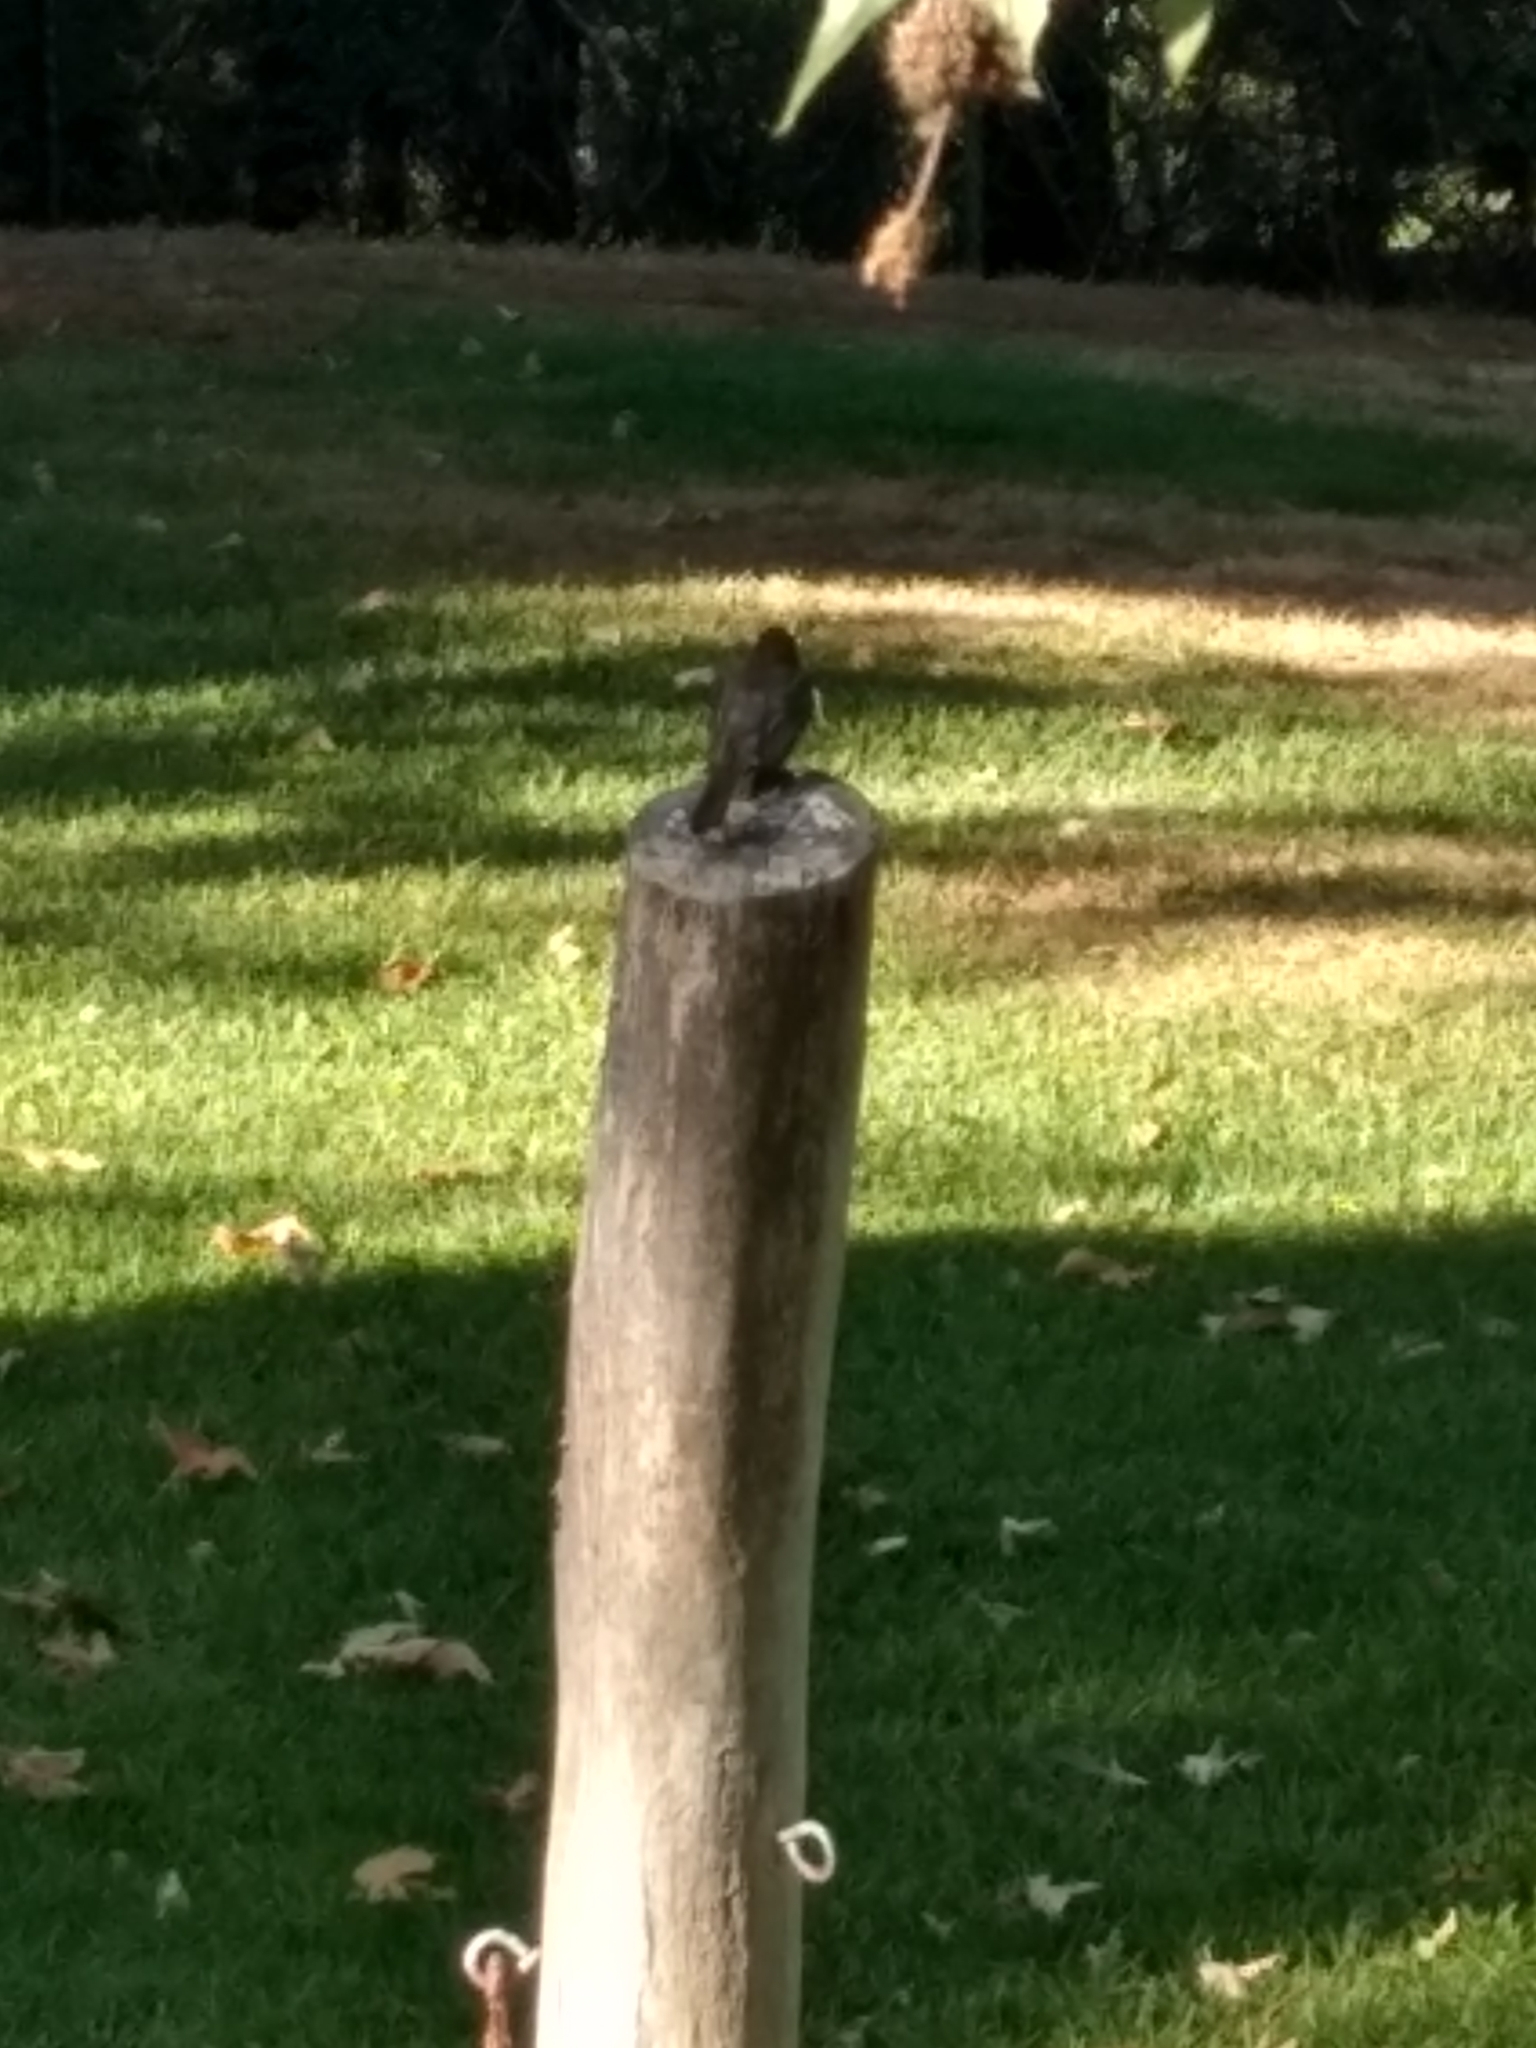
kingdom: Animalia
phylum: Chordata
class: Aves
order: Passeriformes
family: Tyrannidae
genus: Sayornis
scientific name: Sayornis nigricans
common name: Black phoebe
